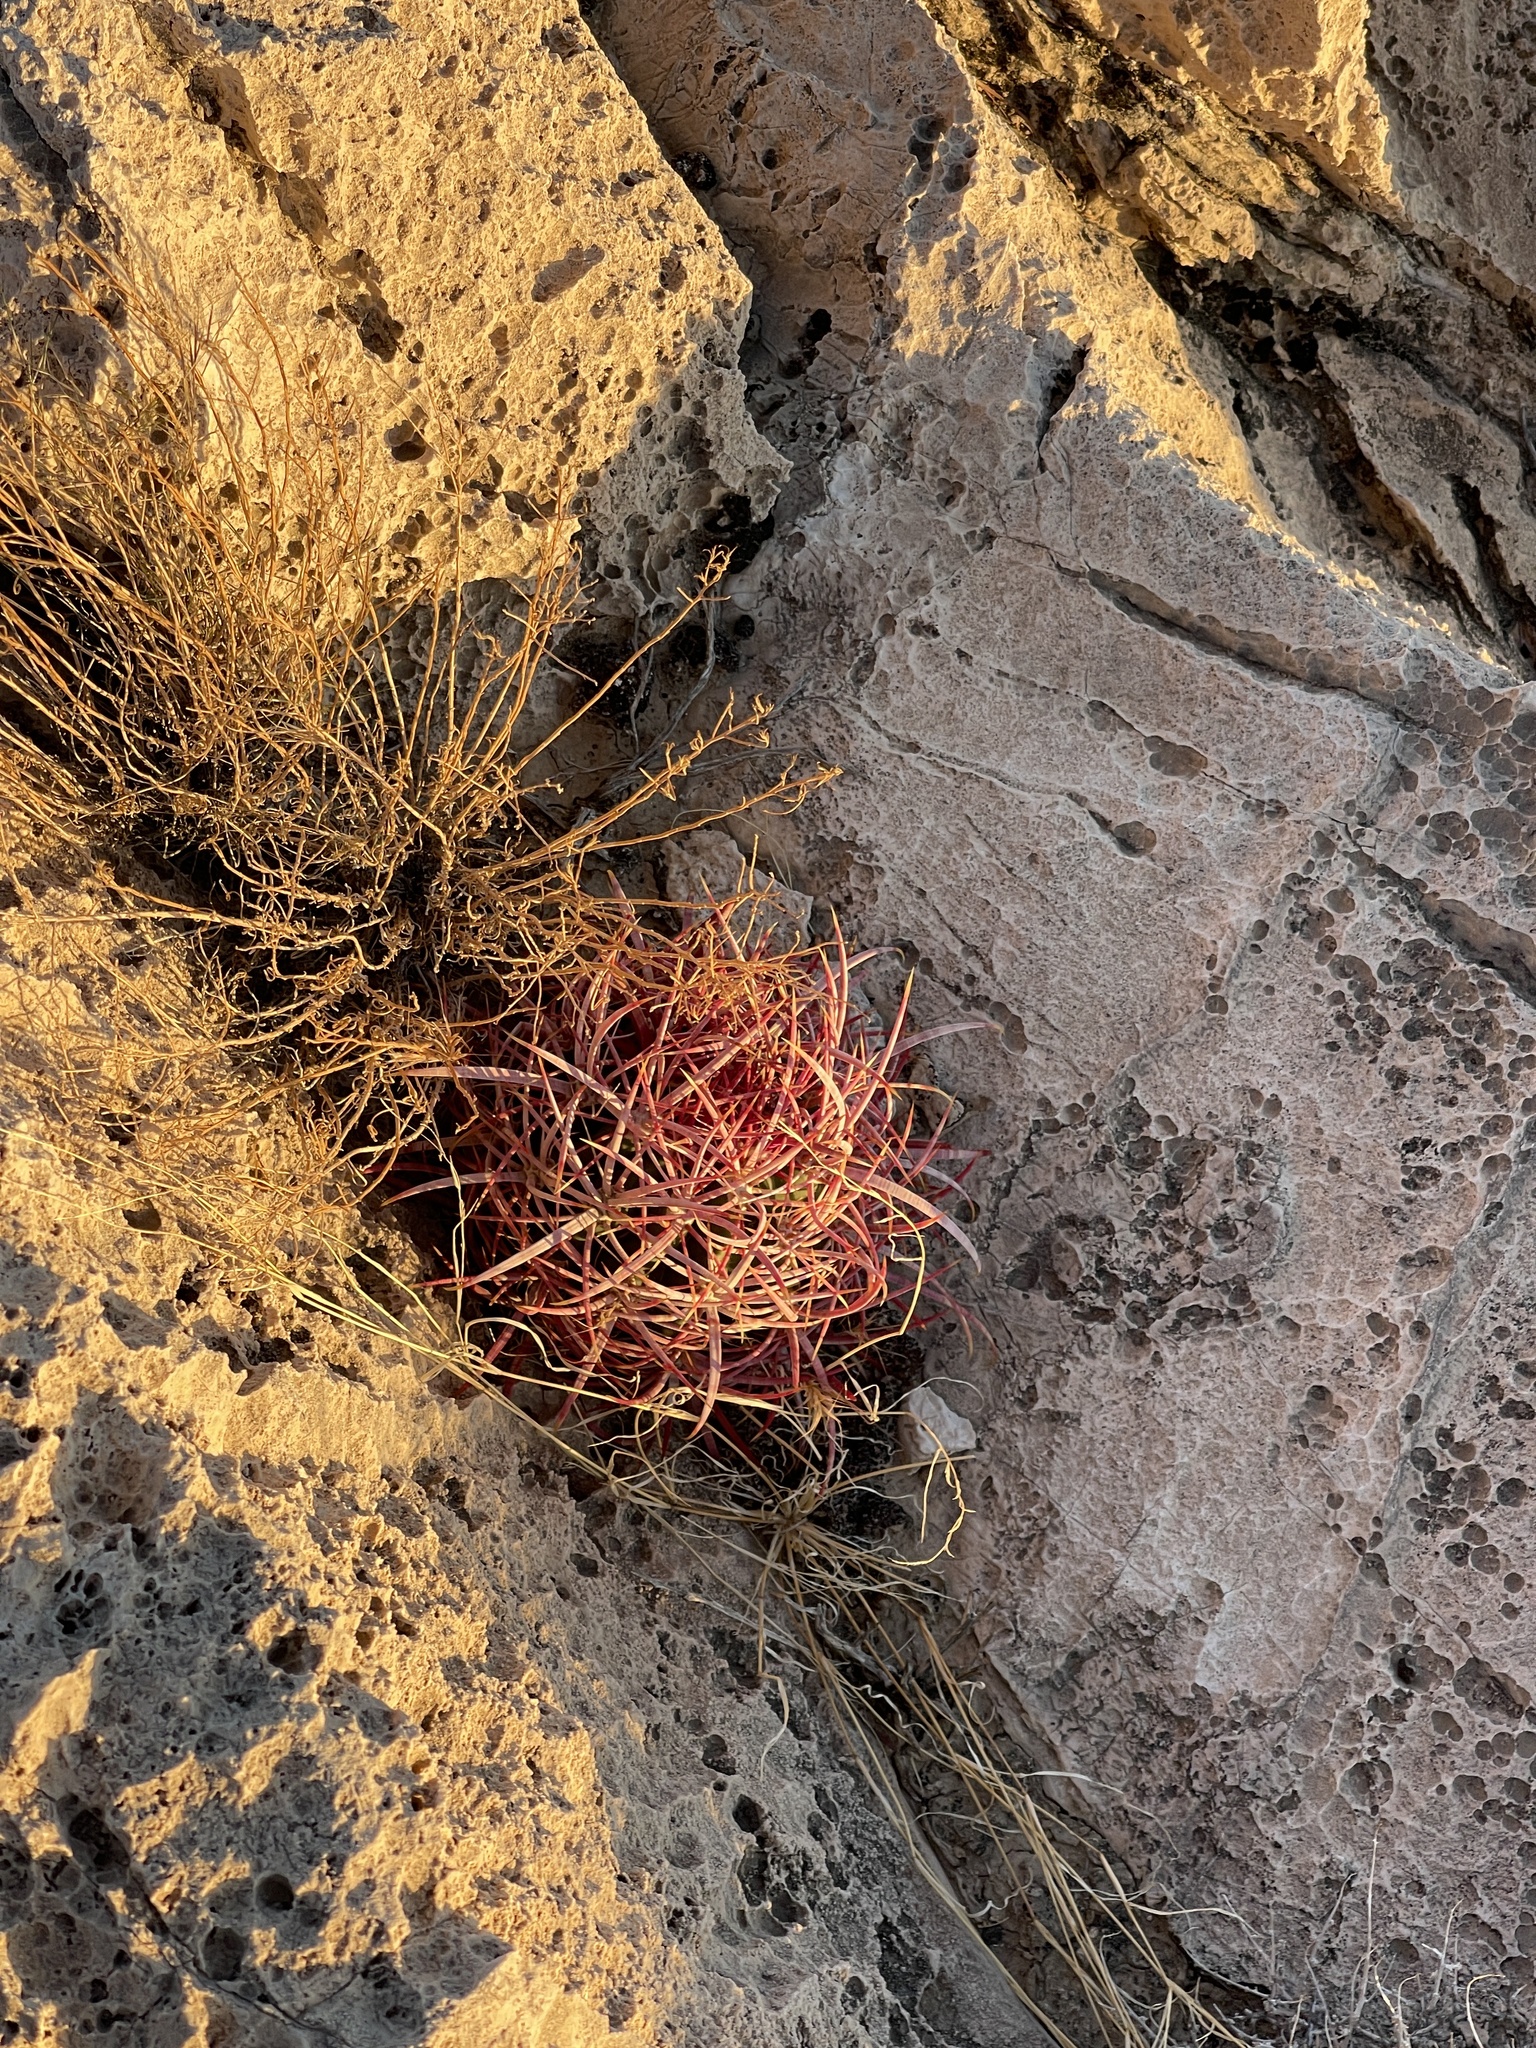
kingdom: Plantae
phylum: Tracheophyta
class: Magnoliopsida
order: Caryophyllales
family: Cactaceae
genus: Ferocactus
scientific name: Ferocactus cylindraceus
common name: California barrel cactus
